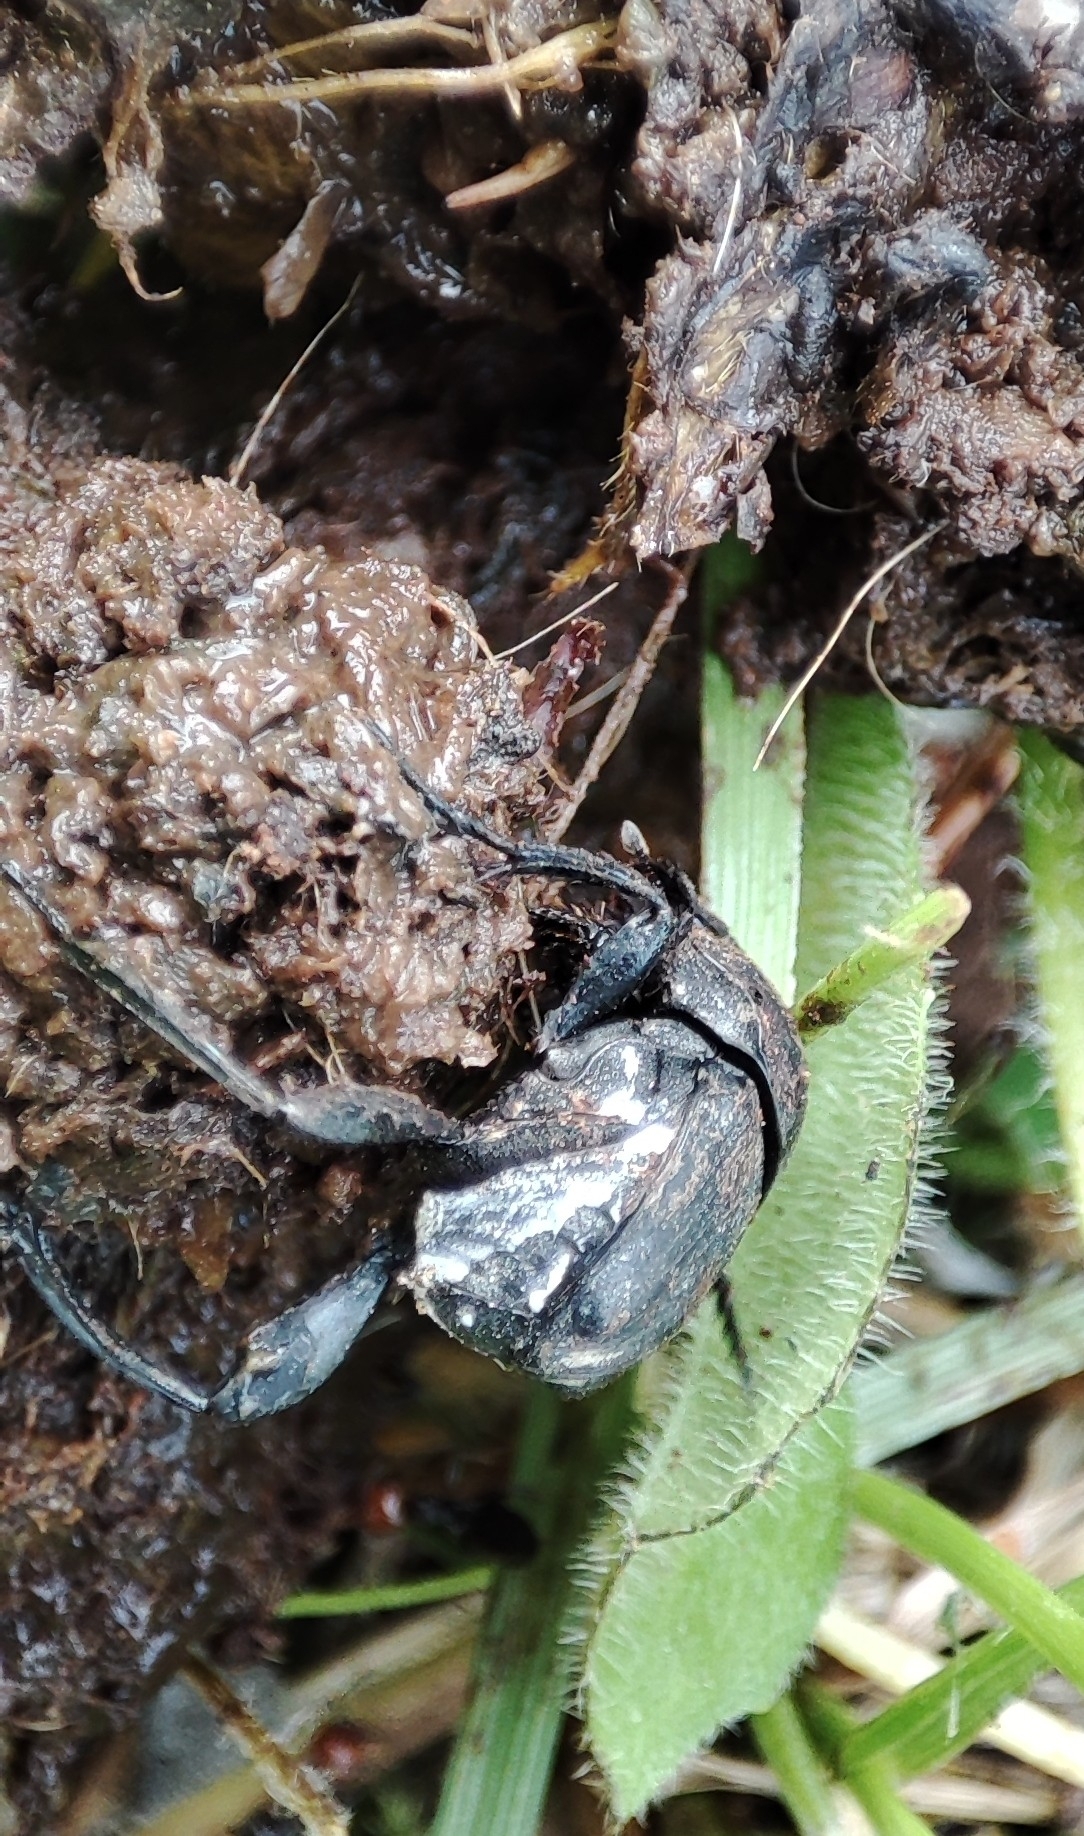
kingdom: Animalia
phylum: Arthropoda
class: Insecta
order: Coleoptera
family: Scarabaeidae
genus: Sisyphus
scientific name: Sisyphus schaefferi
